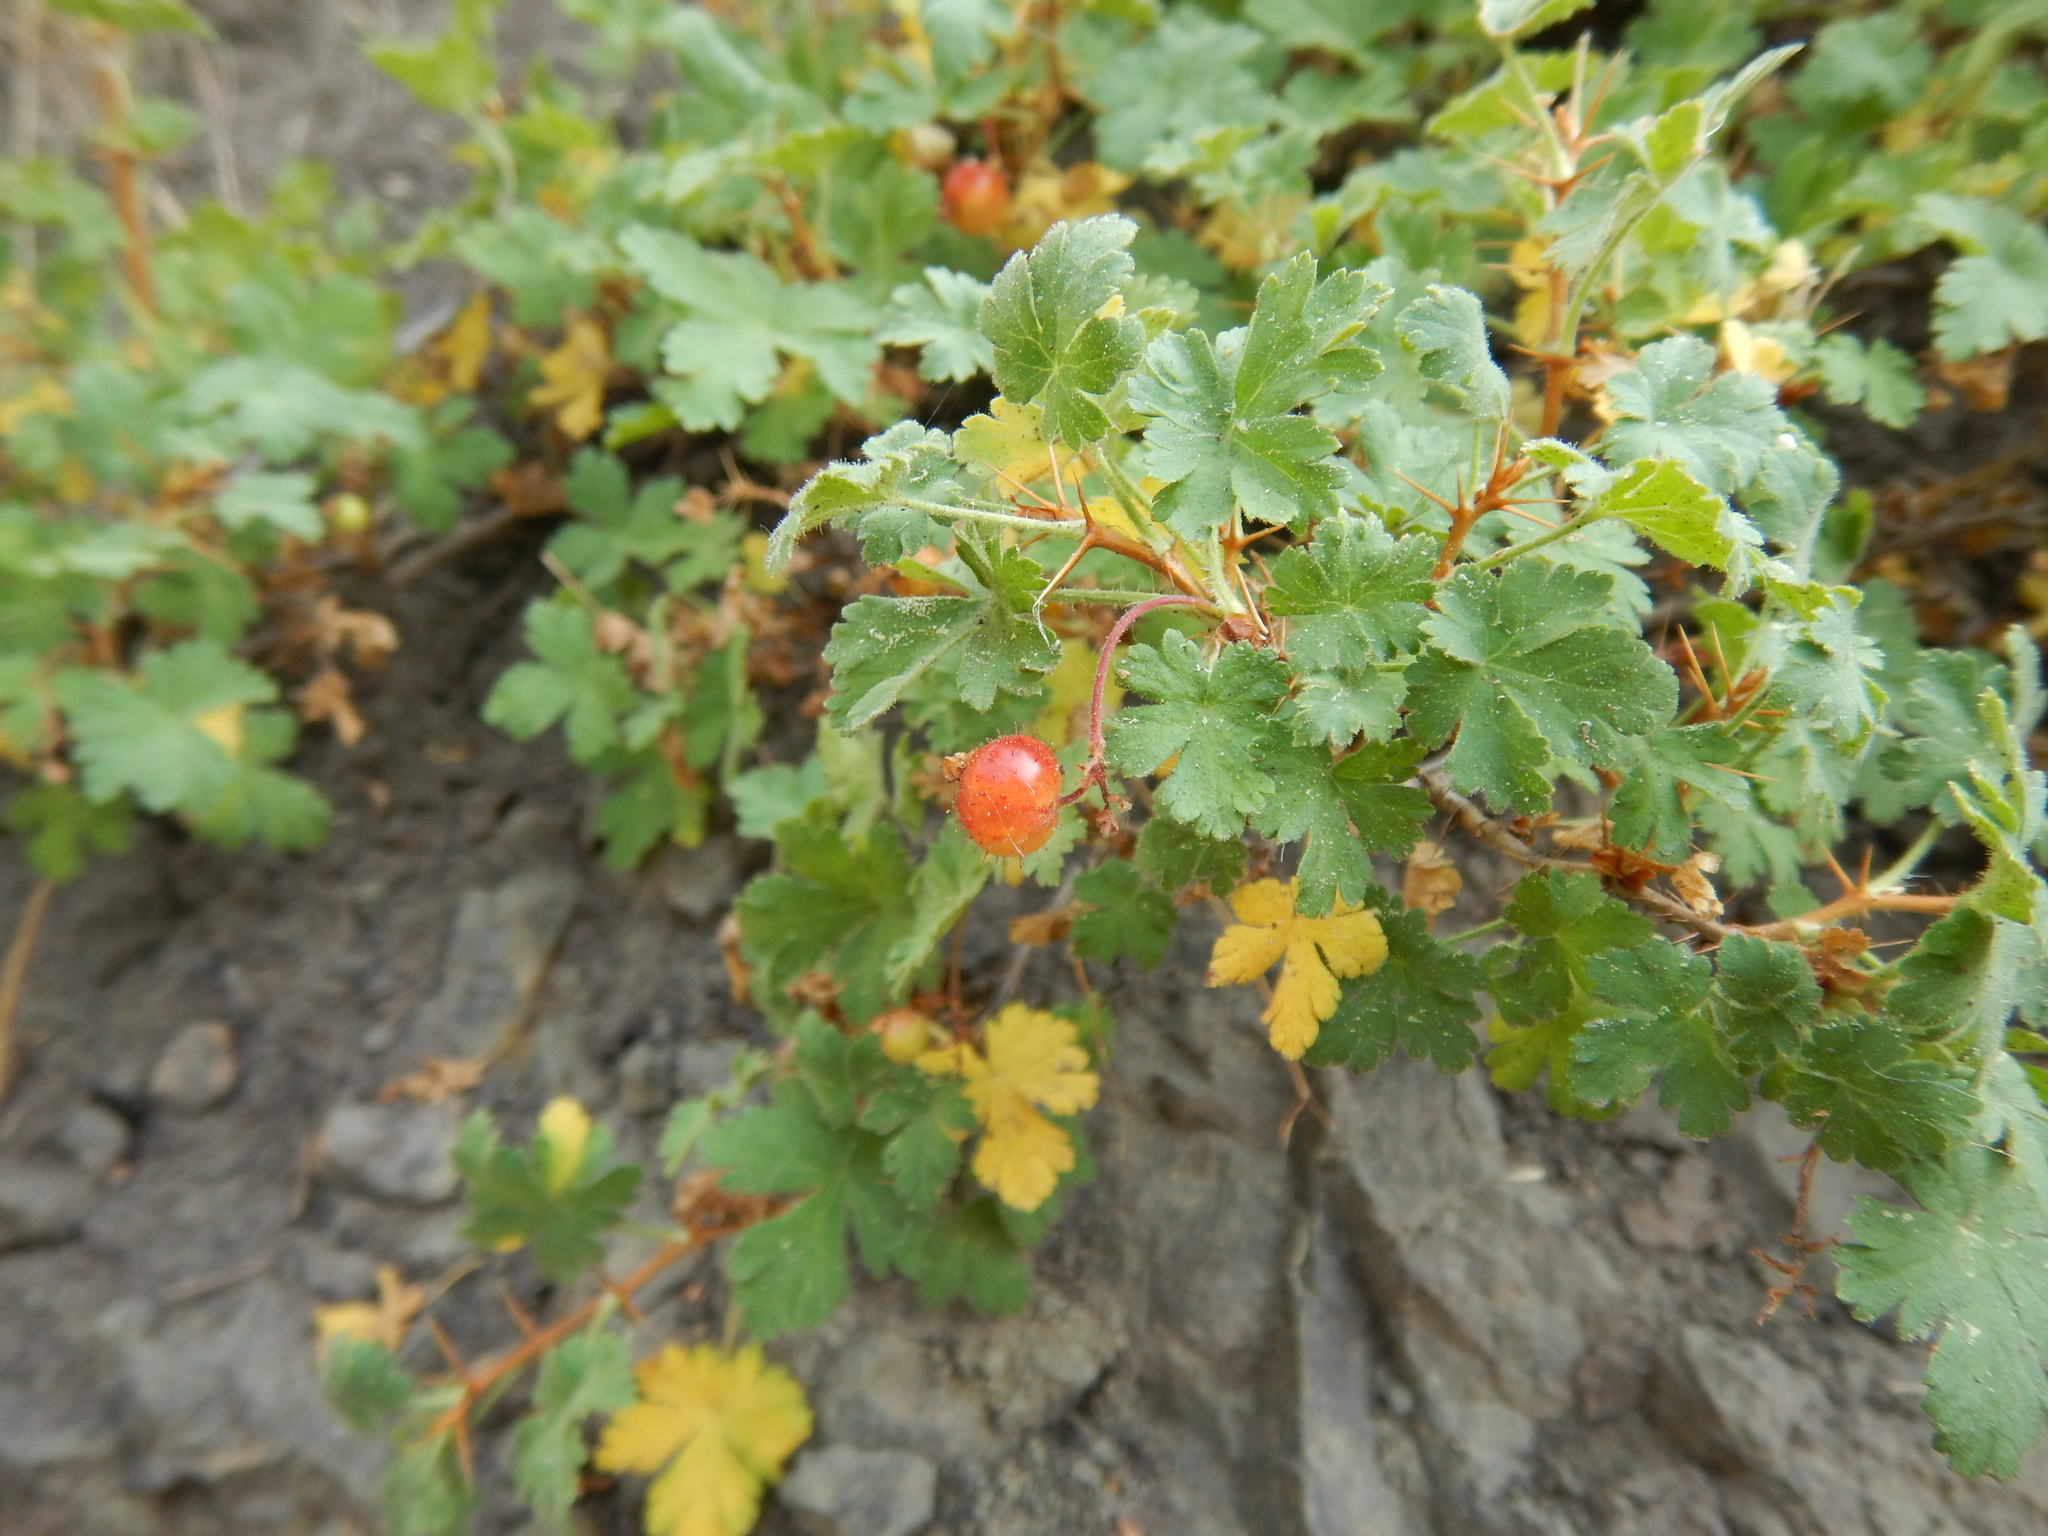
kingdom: Plantae
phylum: Tracheophyta
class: Magnoliopsida
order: Saxifragales
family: Grossulariaceae
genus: Ribes
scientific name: Ribes montigenum
